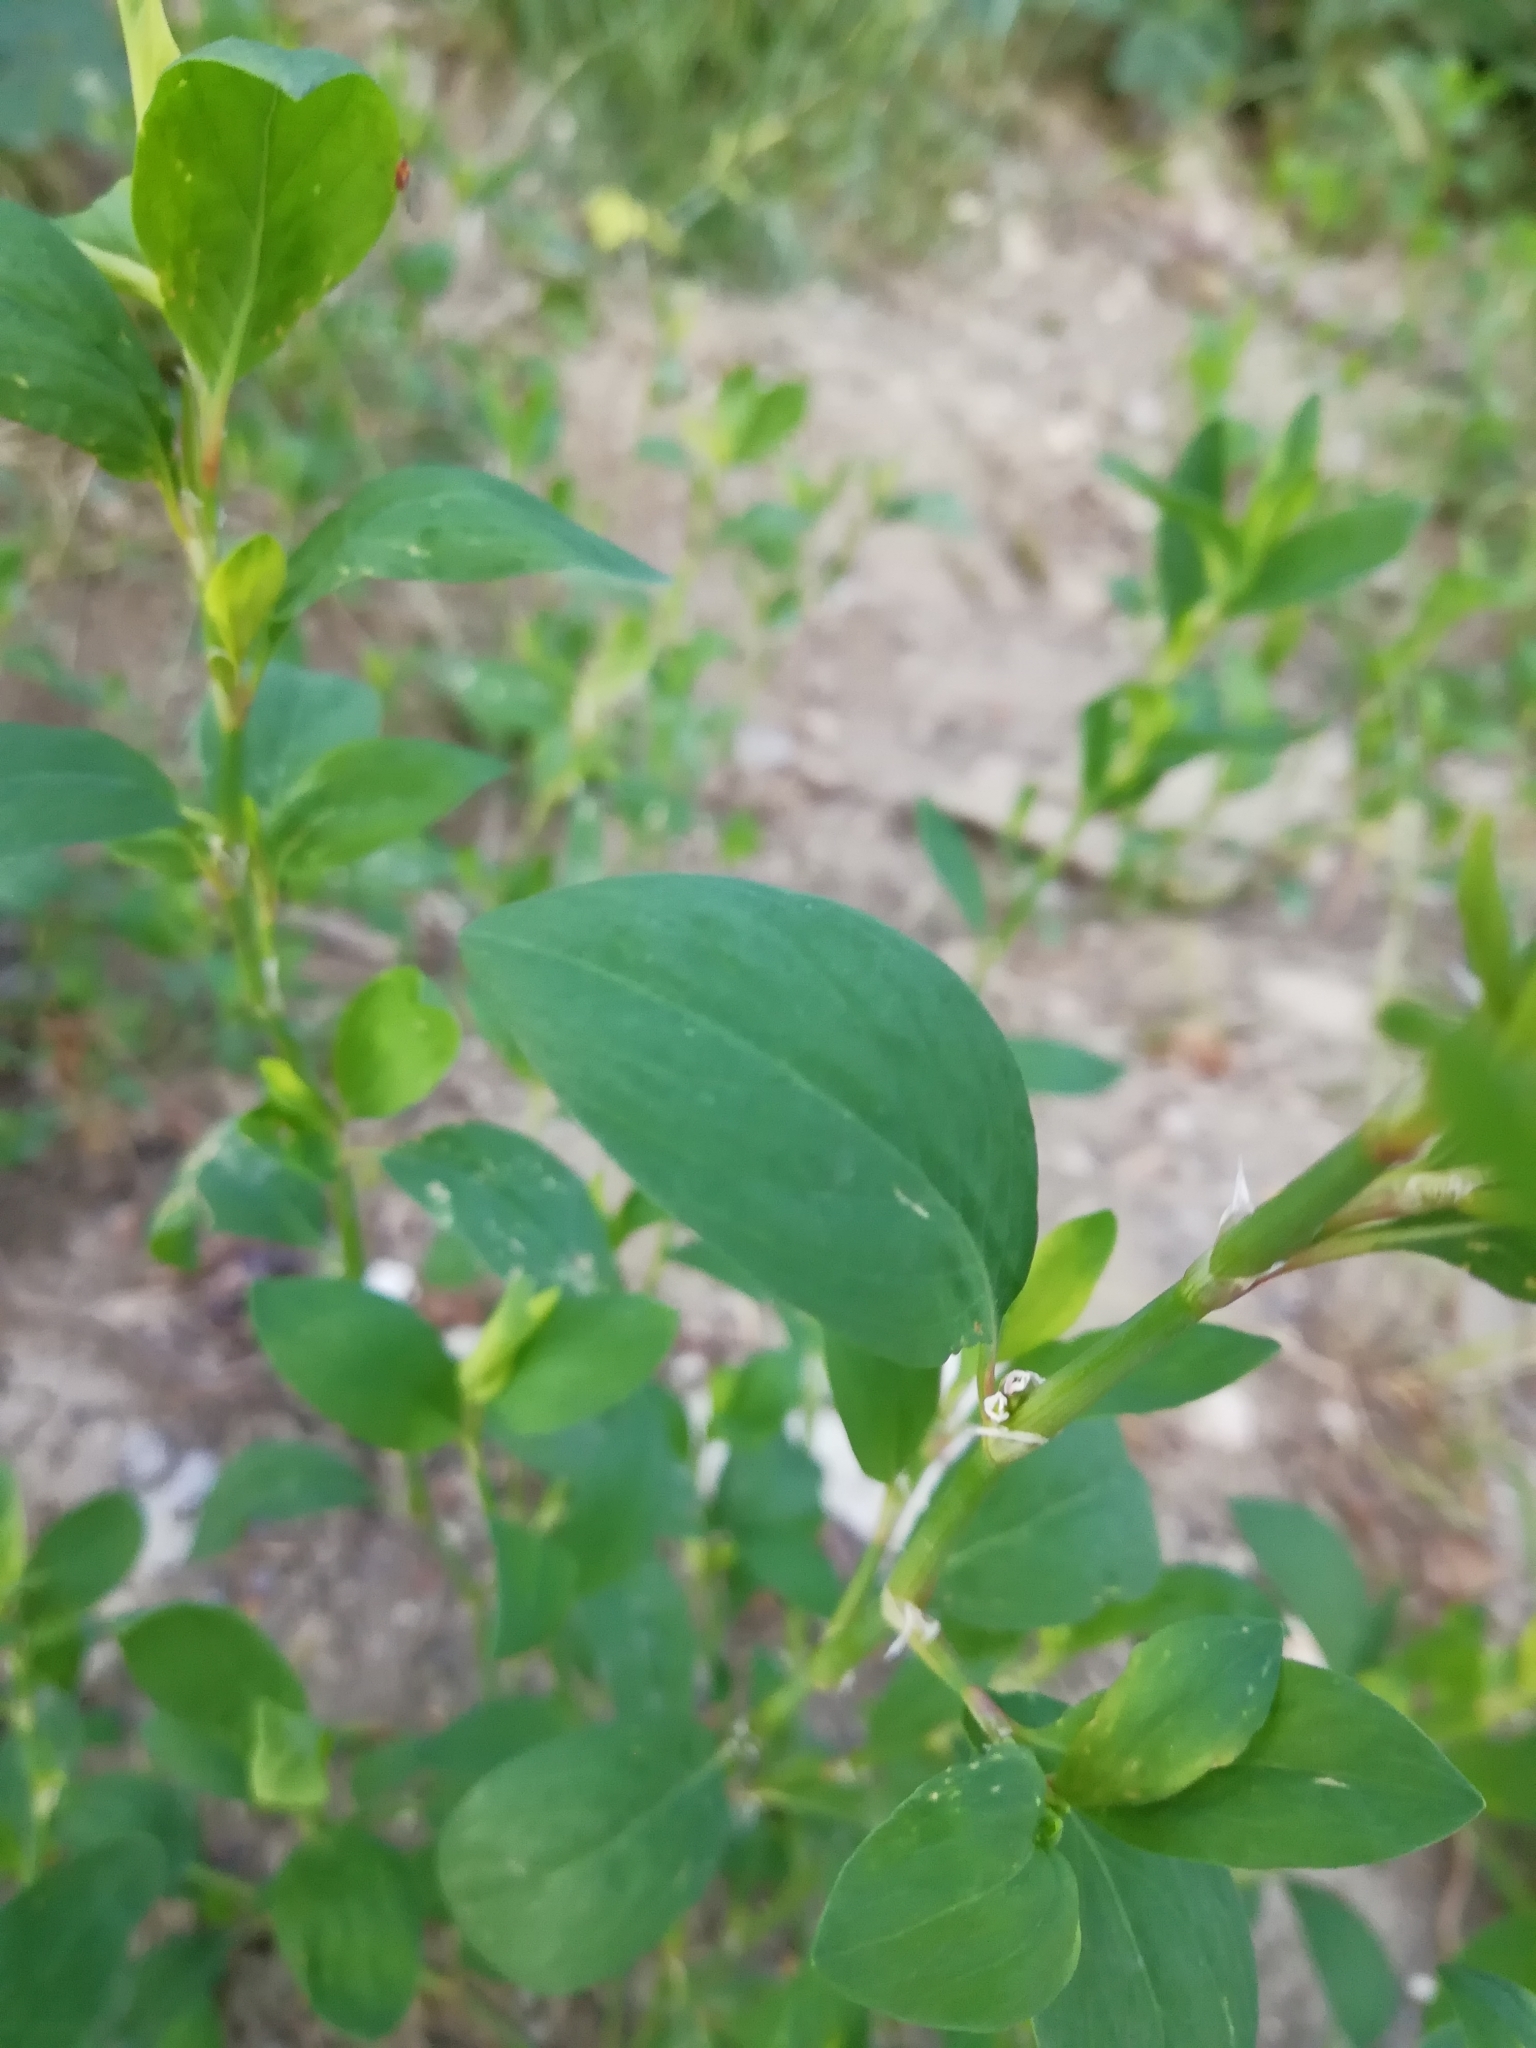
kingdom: Plantae
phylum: Tracheophyta
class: Magnoliopsida
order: Caryophyllales
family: Polygonaceae
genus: Polygonum
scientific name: Polygonum aviculare
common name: Prostrate knotweed
